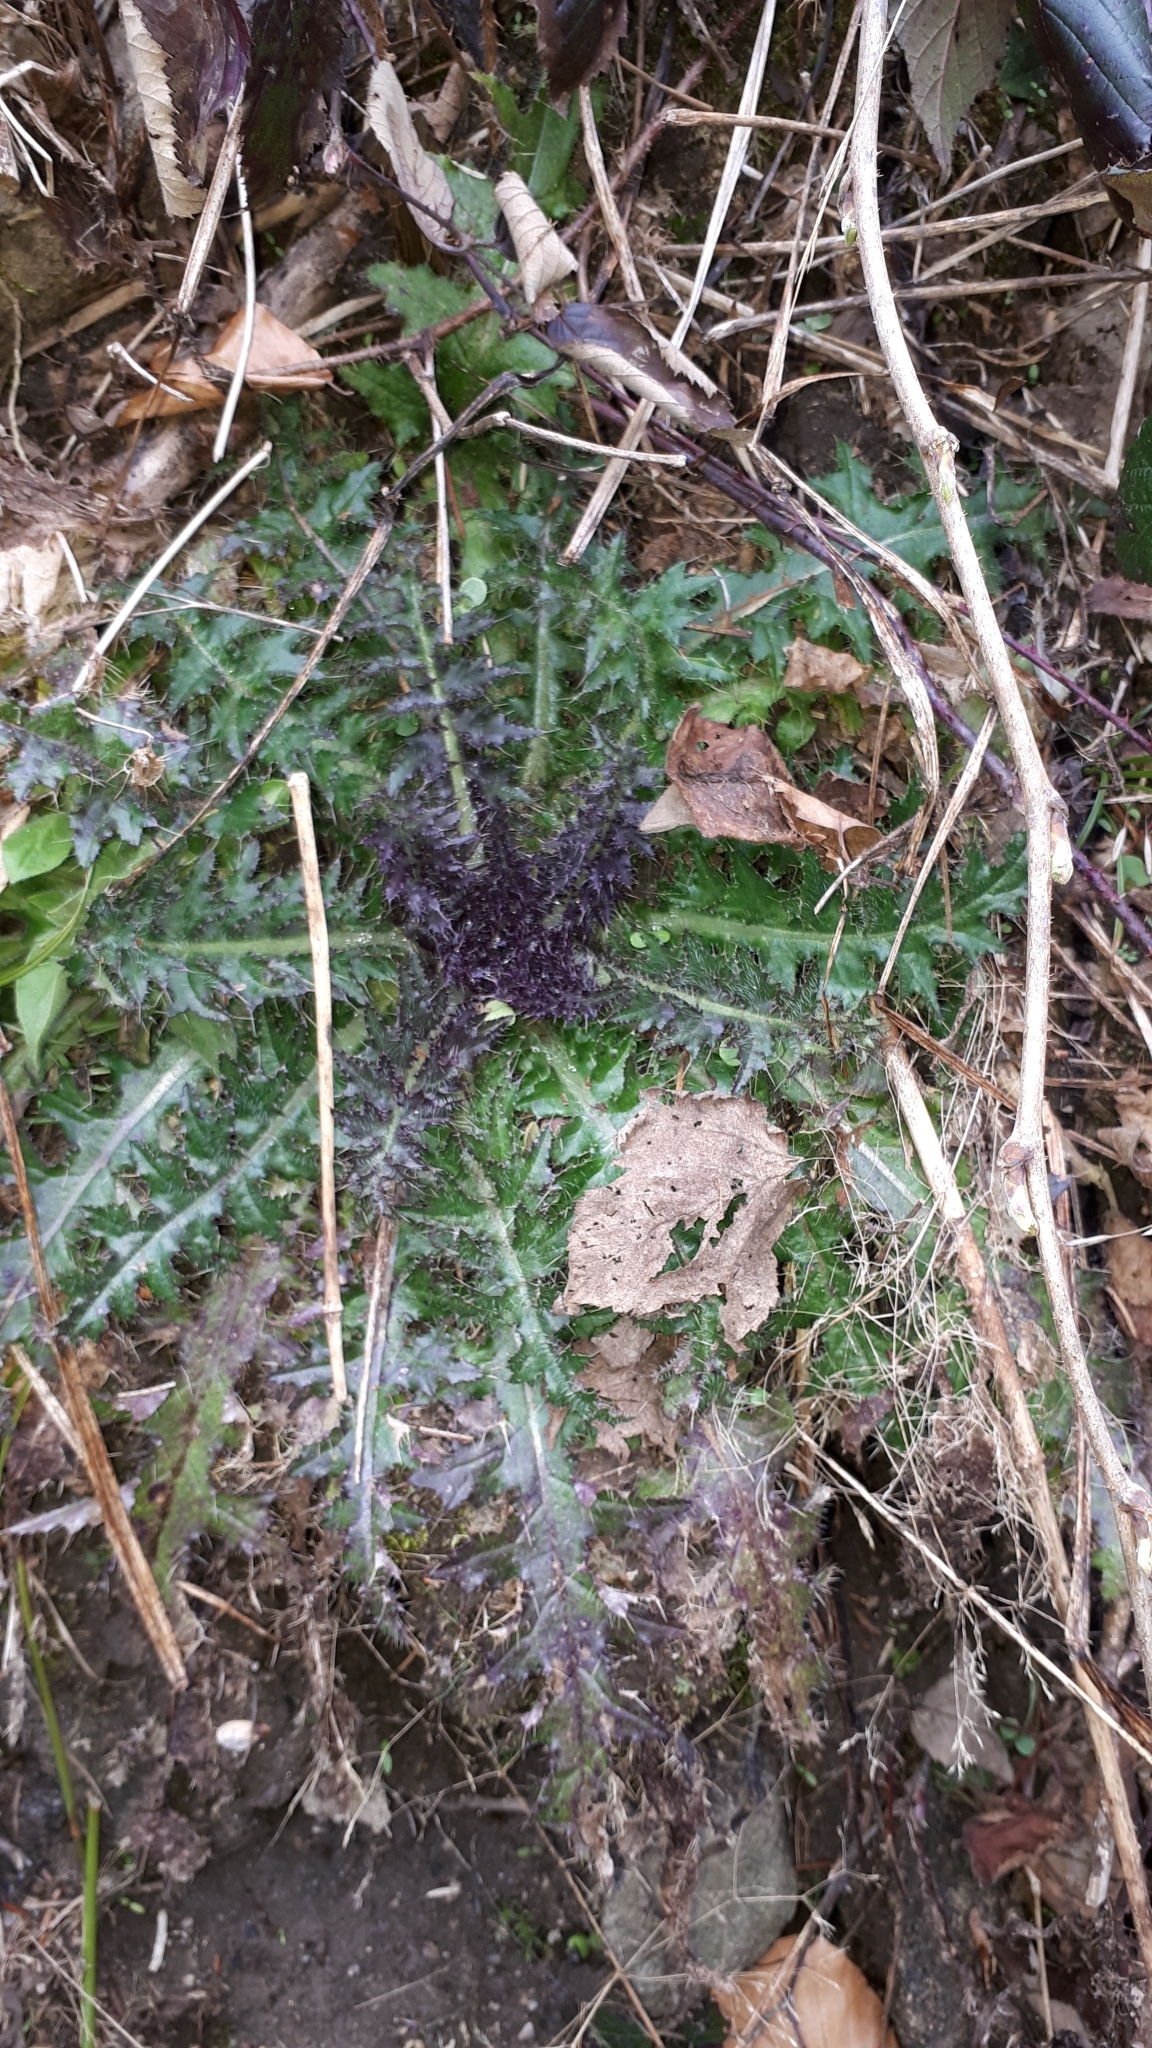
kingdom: Plantae
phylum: Tracheophyta
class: Magnoliopsida
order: Asterales
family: Asteraceae
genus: Cirsium
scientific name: Cirsium palustre
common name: Marsh thistle
